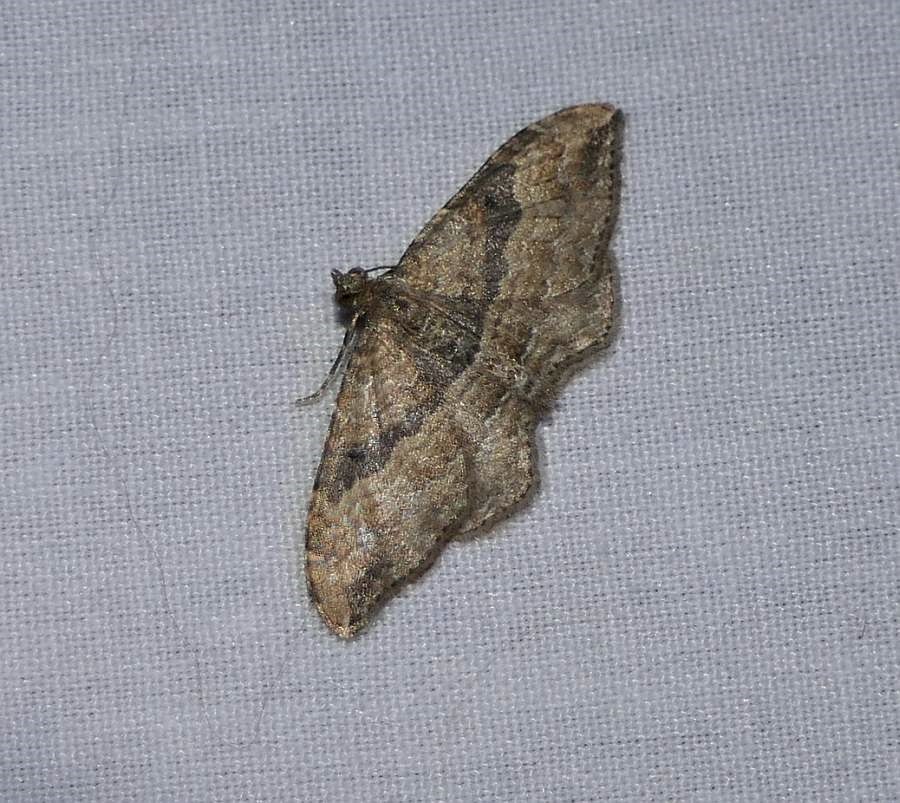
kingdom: Animalia
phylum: Arthropoda
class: Insecta
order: Lepidoptera
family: Geometridae
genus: Orthonama
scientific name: Orthonama obstipata
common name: The gem
